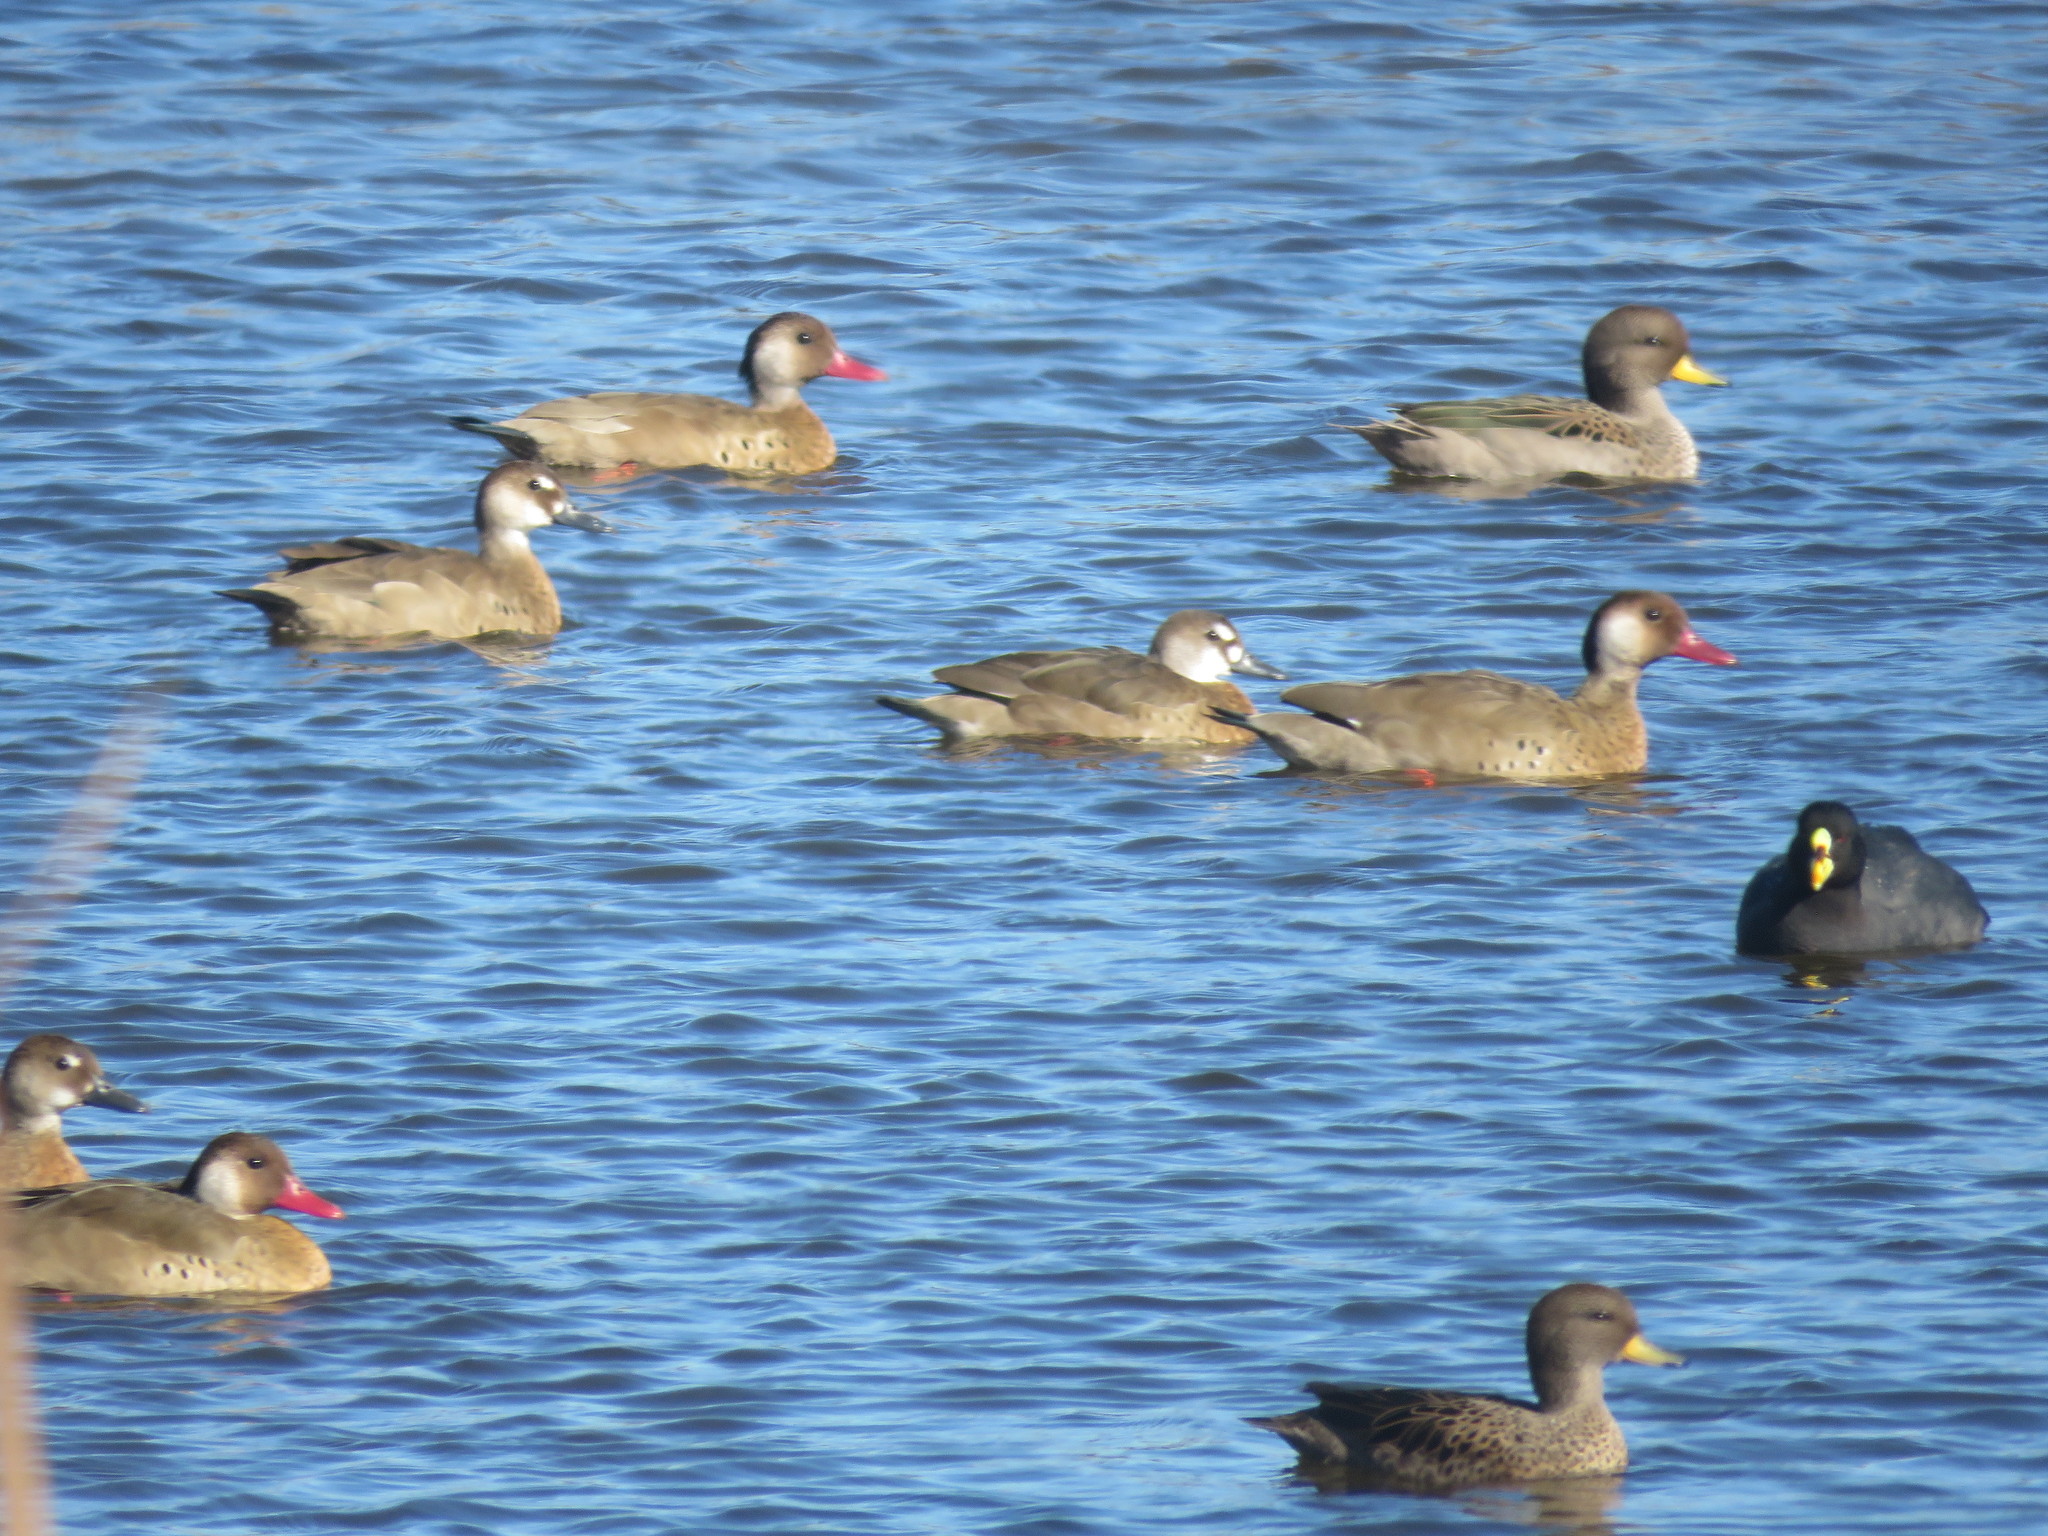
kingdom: Animalia
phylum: Chordata
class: Aves
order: Anseriformes
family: Anatidae
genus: Amazonetta
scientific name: Amazonetta brasiliensis
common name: Brazilian teal
